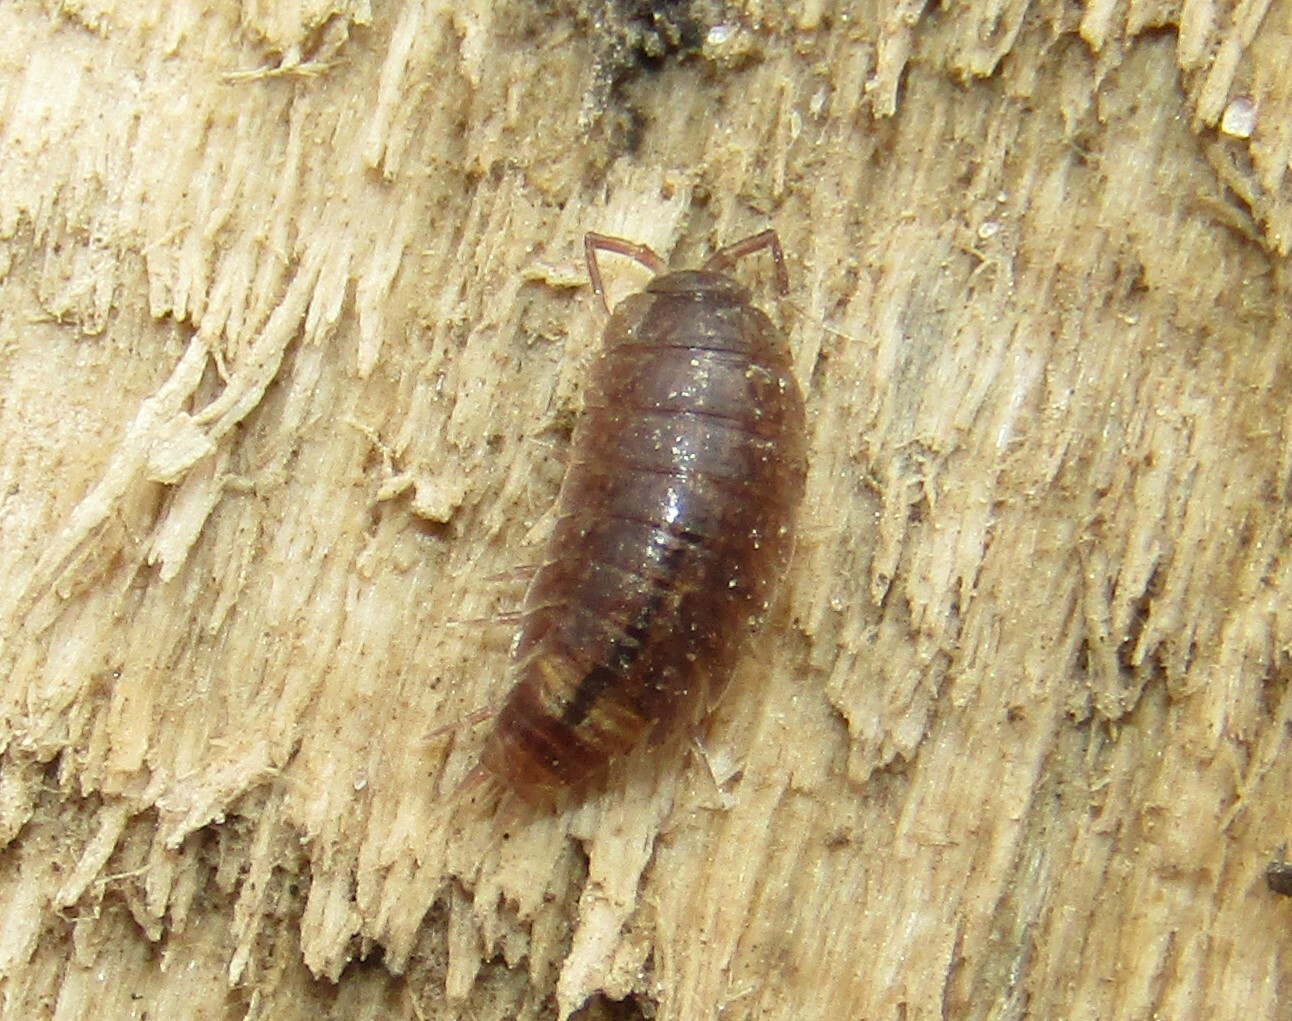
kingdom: Animalia
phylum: Arthropoda
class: Malacostraca
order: Isopoda
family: Trichoniscidae
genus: Hyloniscus
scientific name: Hyloniscus riparius
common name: Isopod
